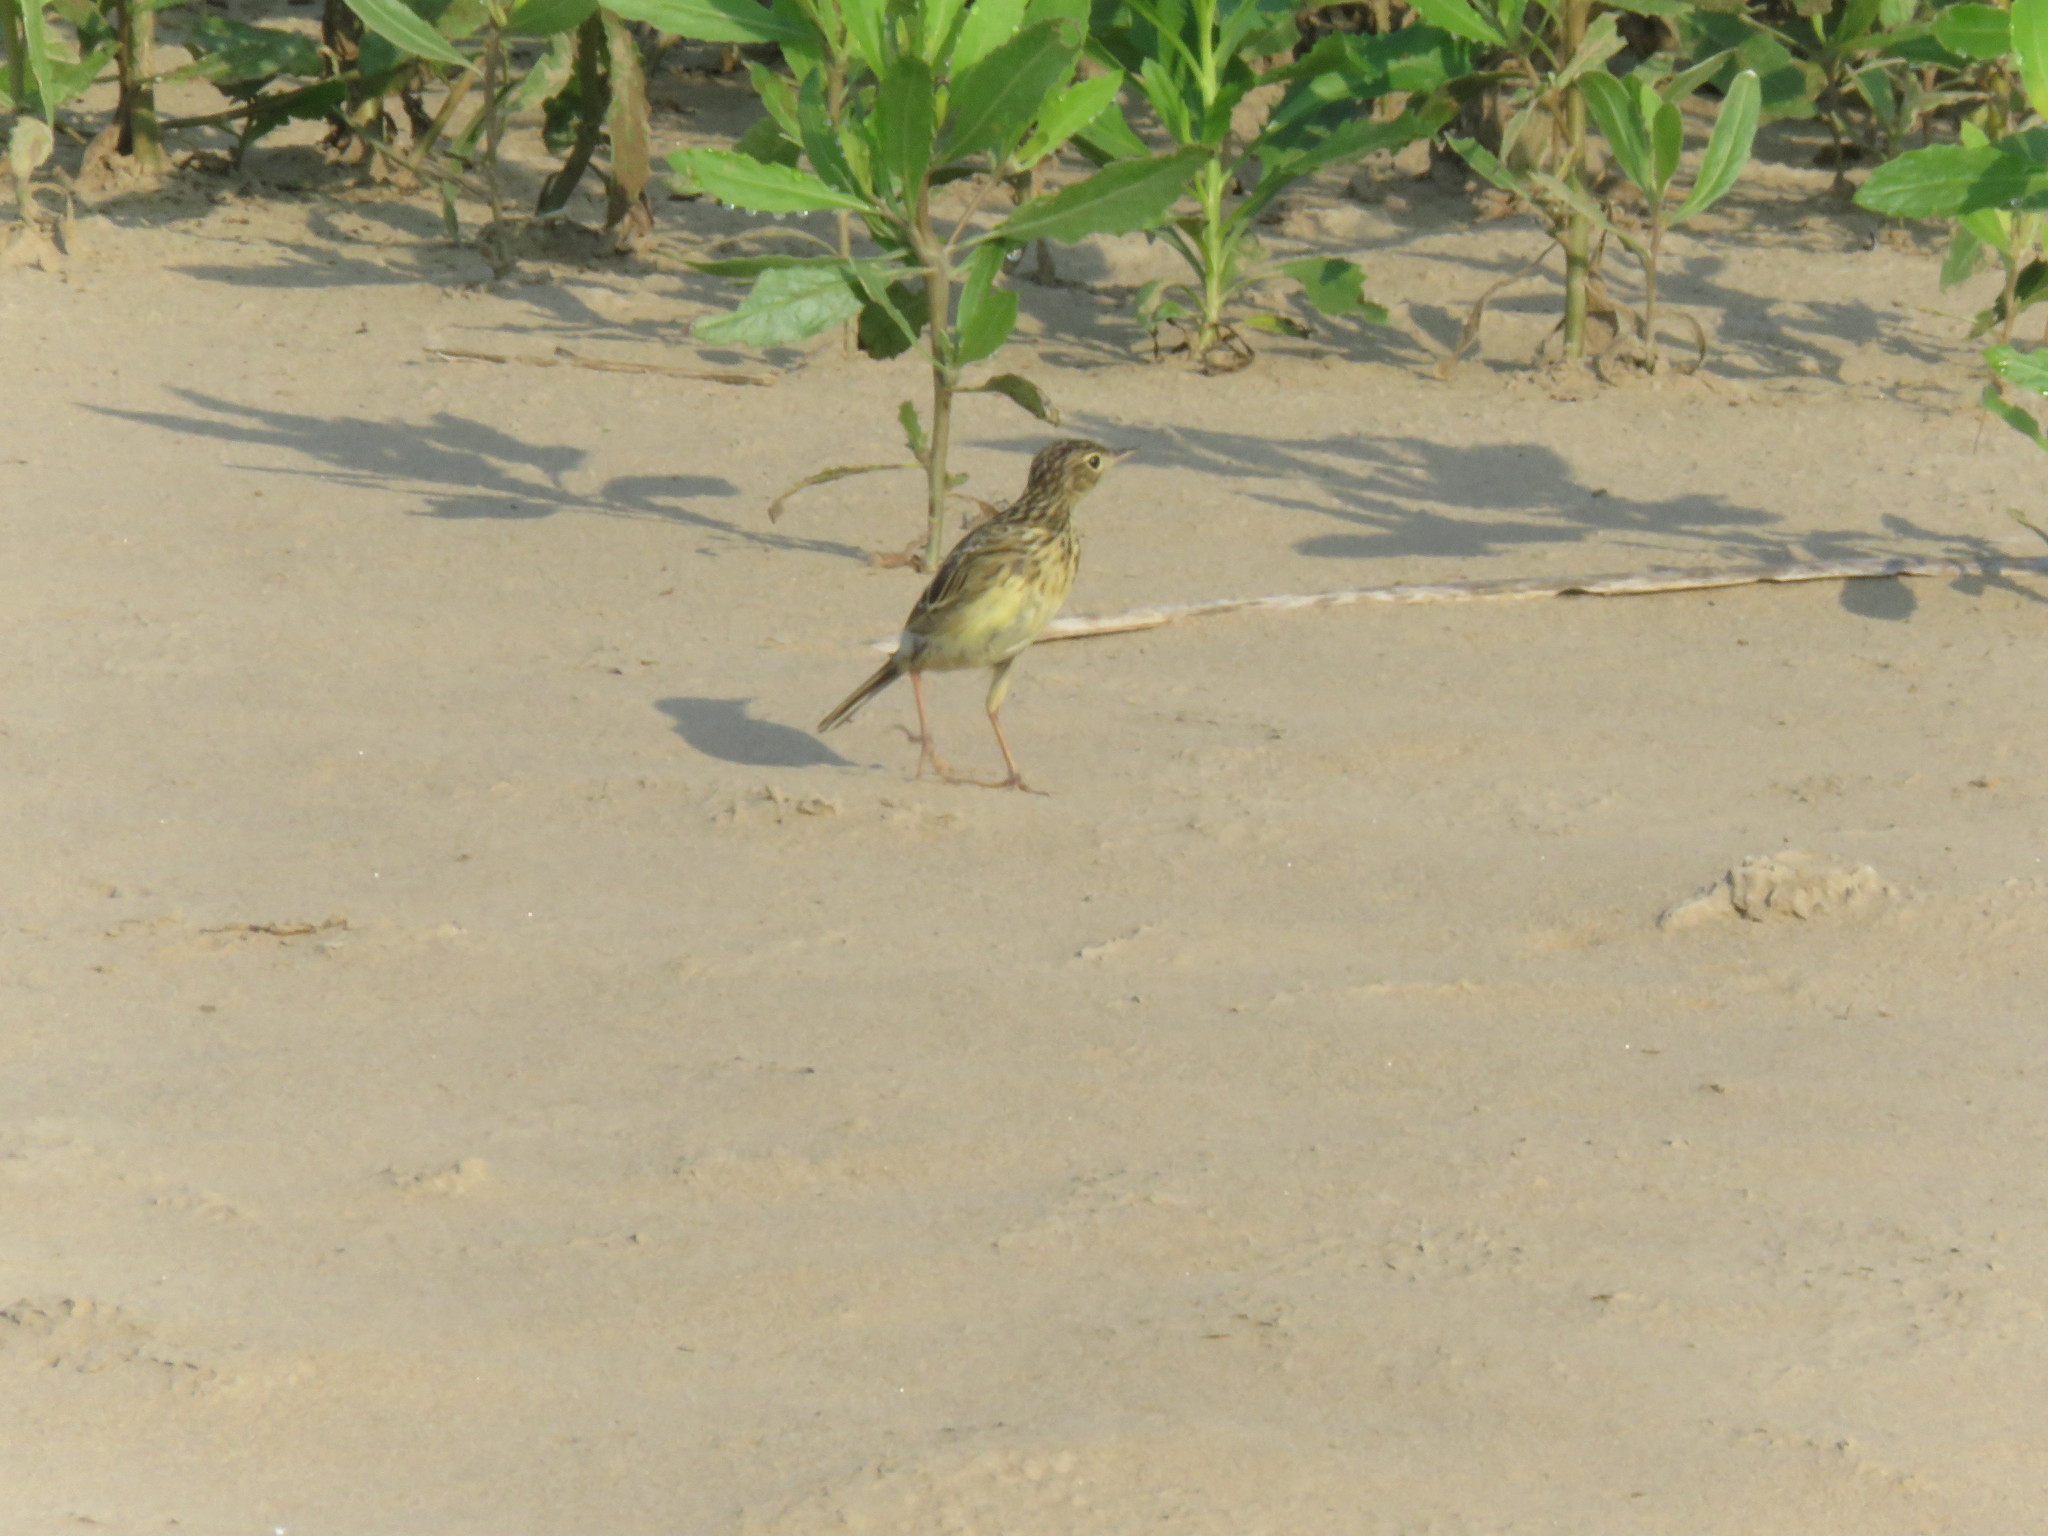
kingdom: Animalia
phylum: Chordata
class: Aves
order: Passeriformes
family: Motacillidae
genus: Anthus
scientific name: Anthus chii
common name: Yellowish pipit
